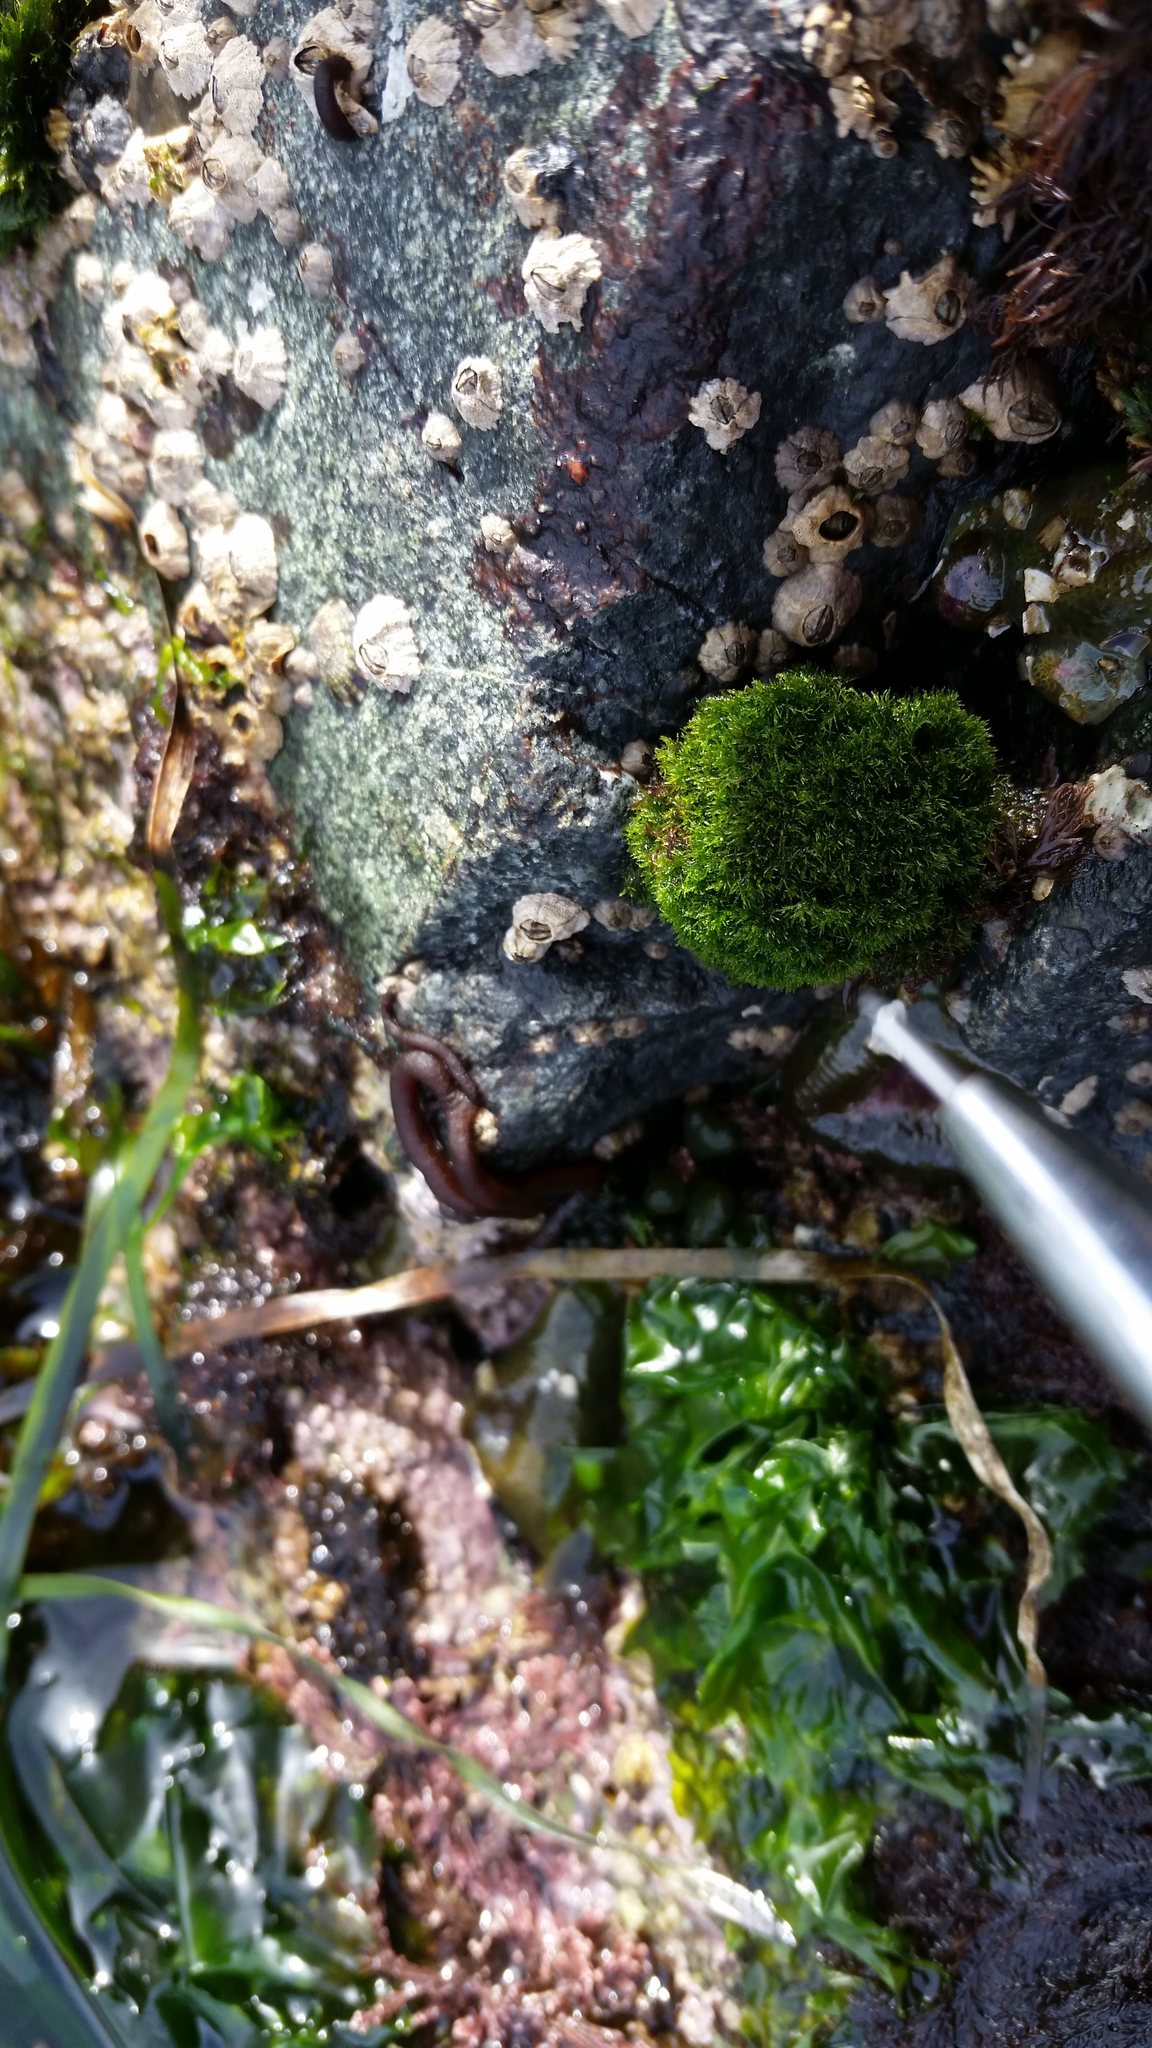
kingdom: Plantae
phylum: Chlorophyta
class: Ulvophyceae
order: Cladophorales
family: Cladophoraceae
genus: Cladophora
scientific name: Cladophora columbiana
